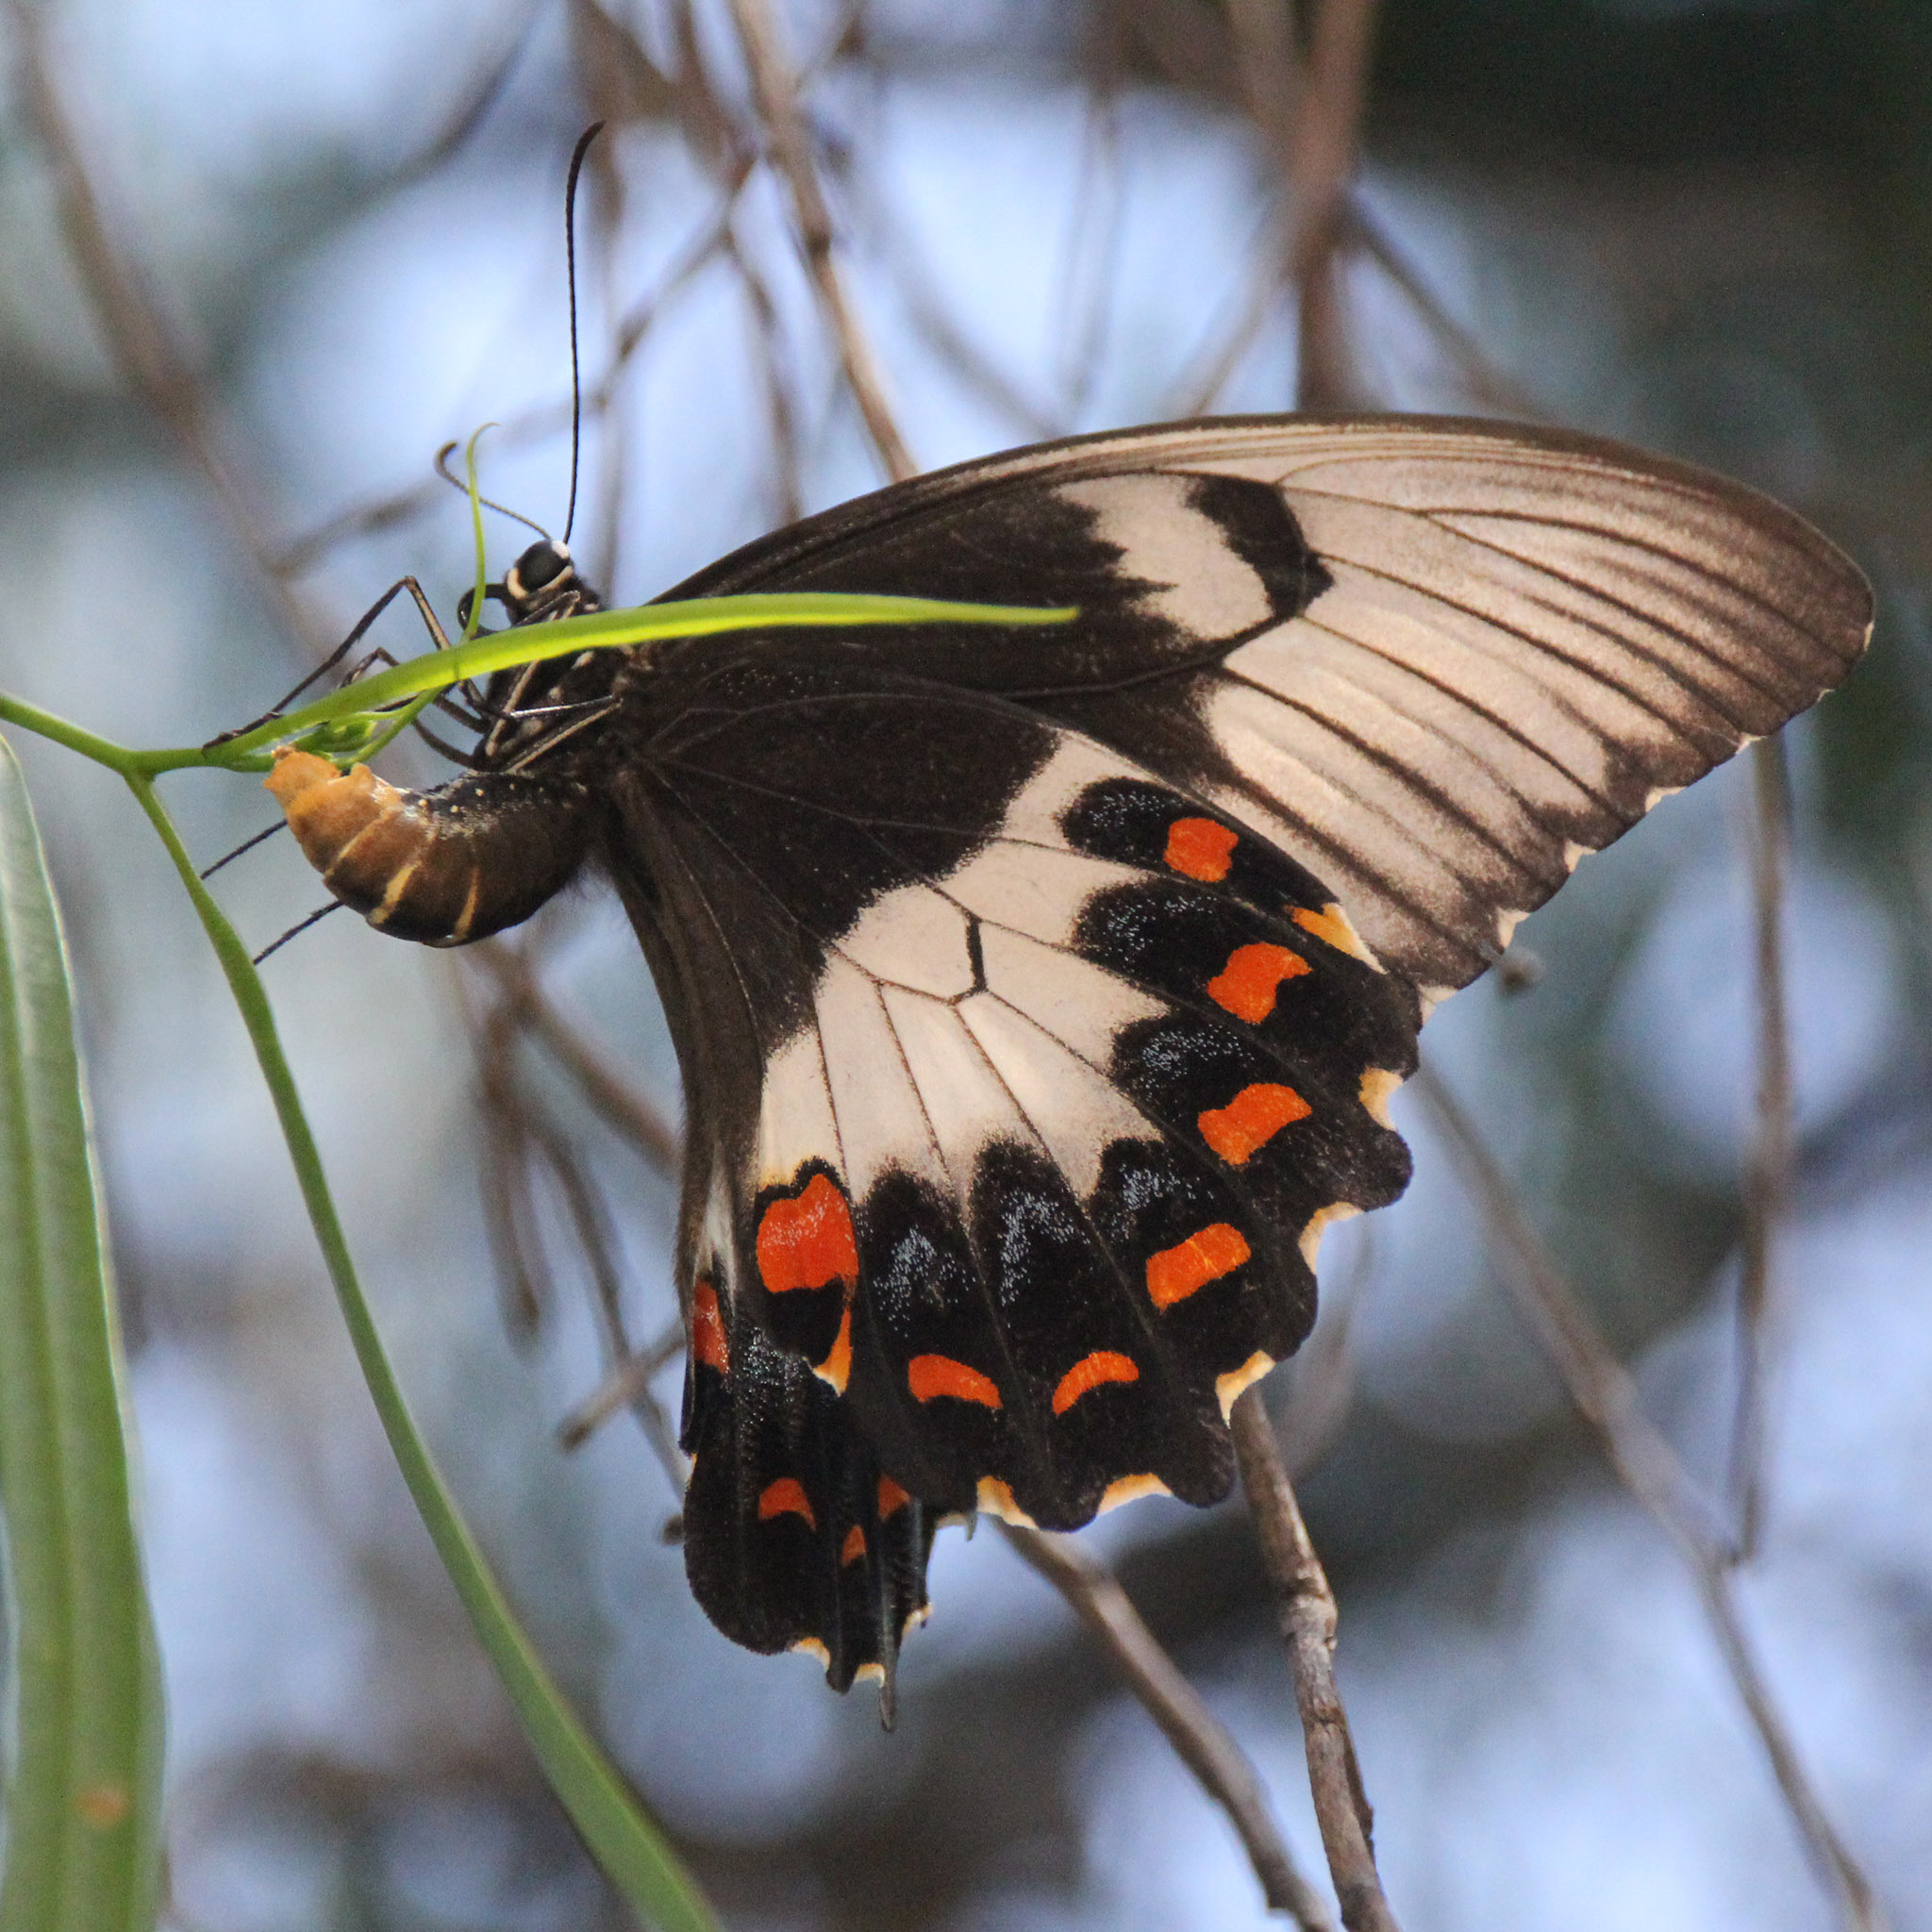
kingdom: Animalia
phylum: Arthropoda
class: Insecta
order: Lepidoptera
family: Papilionidae
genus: Papilio
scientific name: Papilio aegeus
